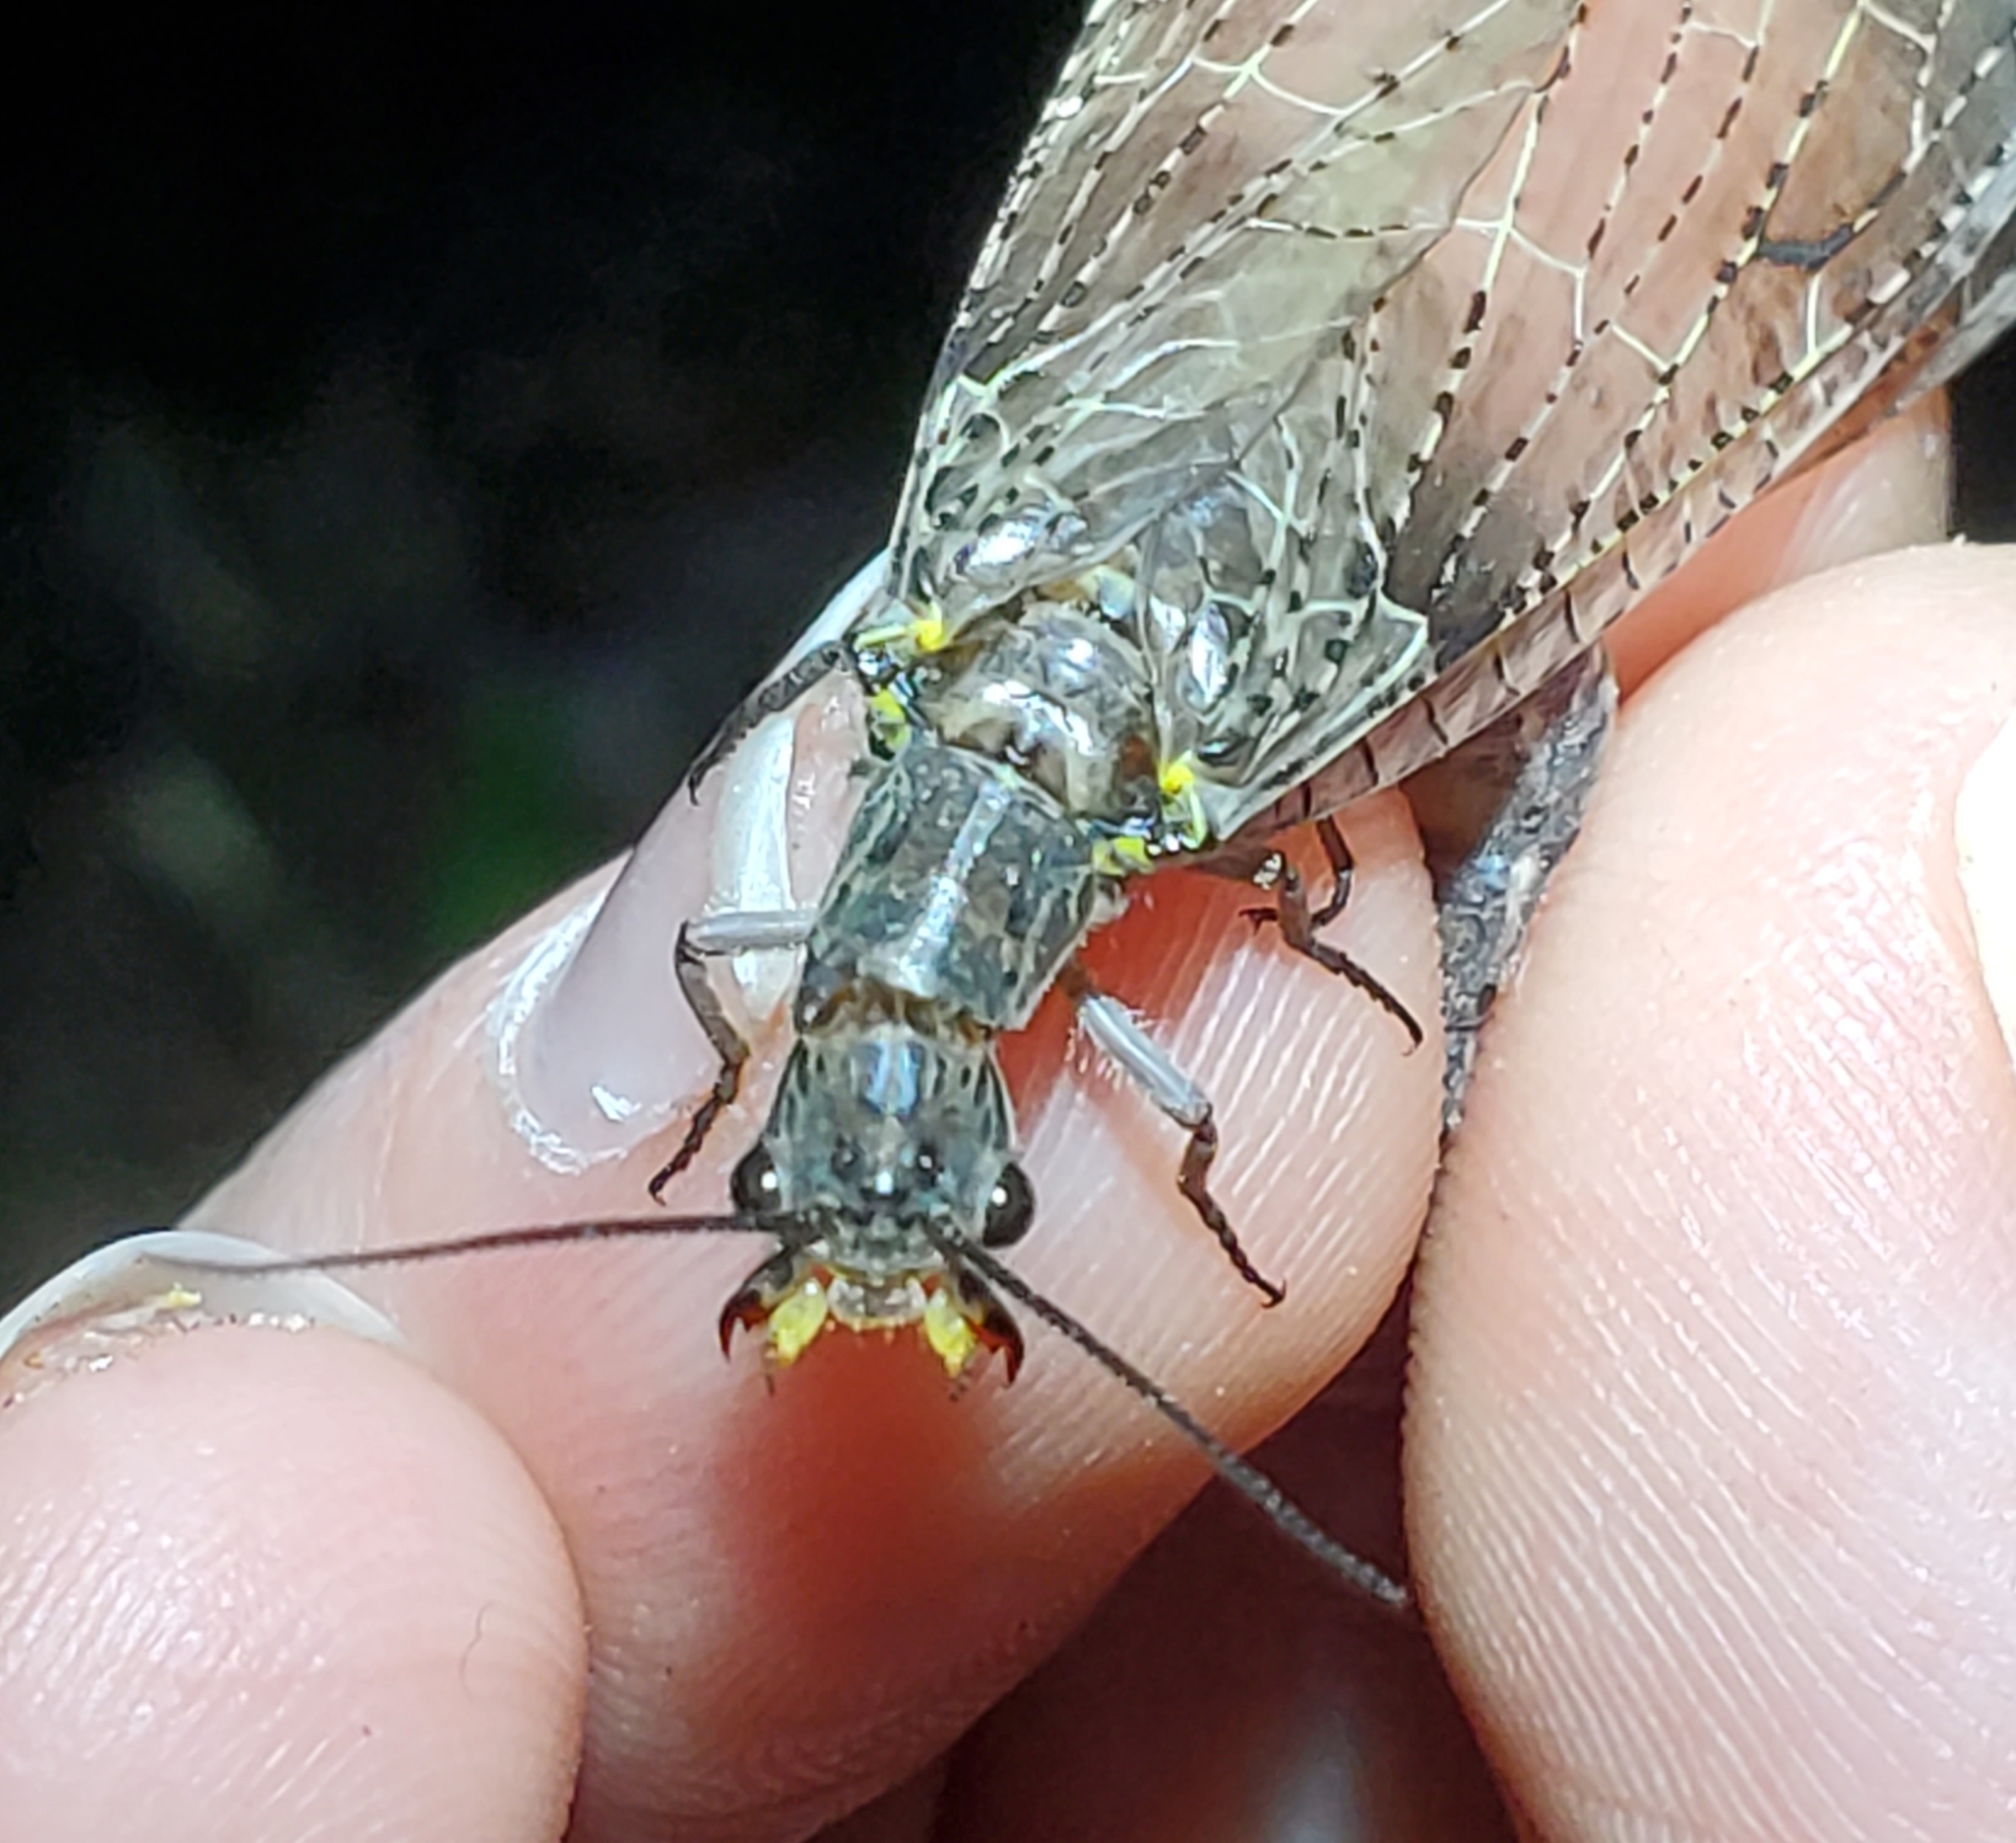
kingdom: Animalia
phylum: Arthropoda
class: Insecta
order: Megaloptera
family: Corydalidae
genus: Chauliodes
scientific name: Chauliodes rastricornis
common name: Spring fishfly
